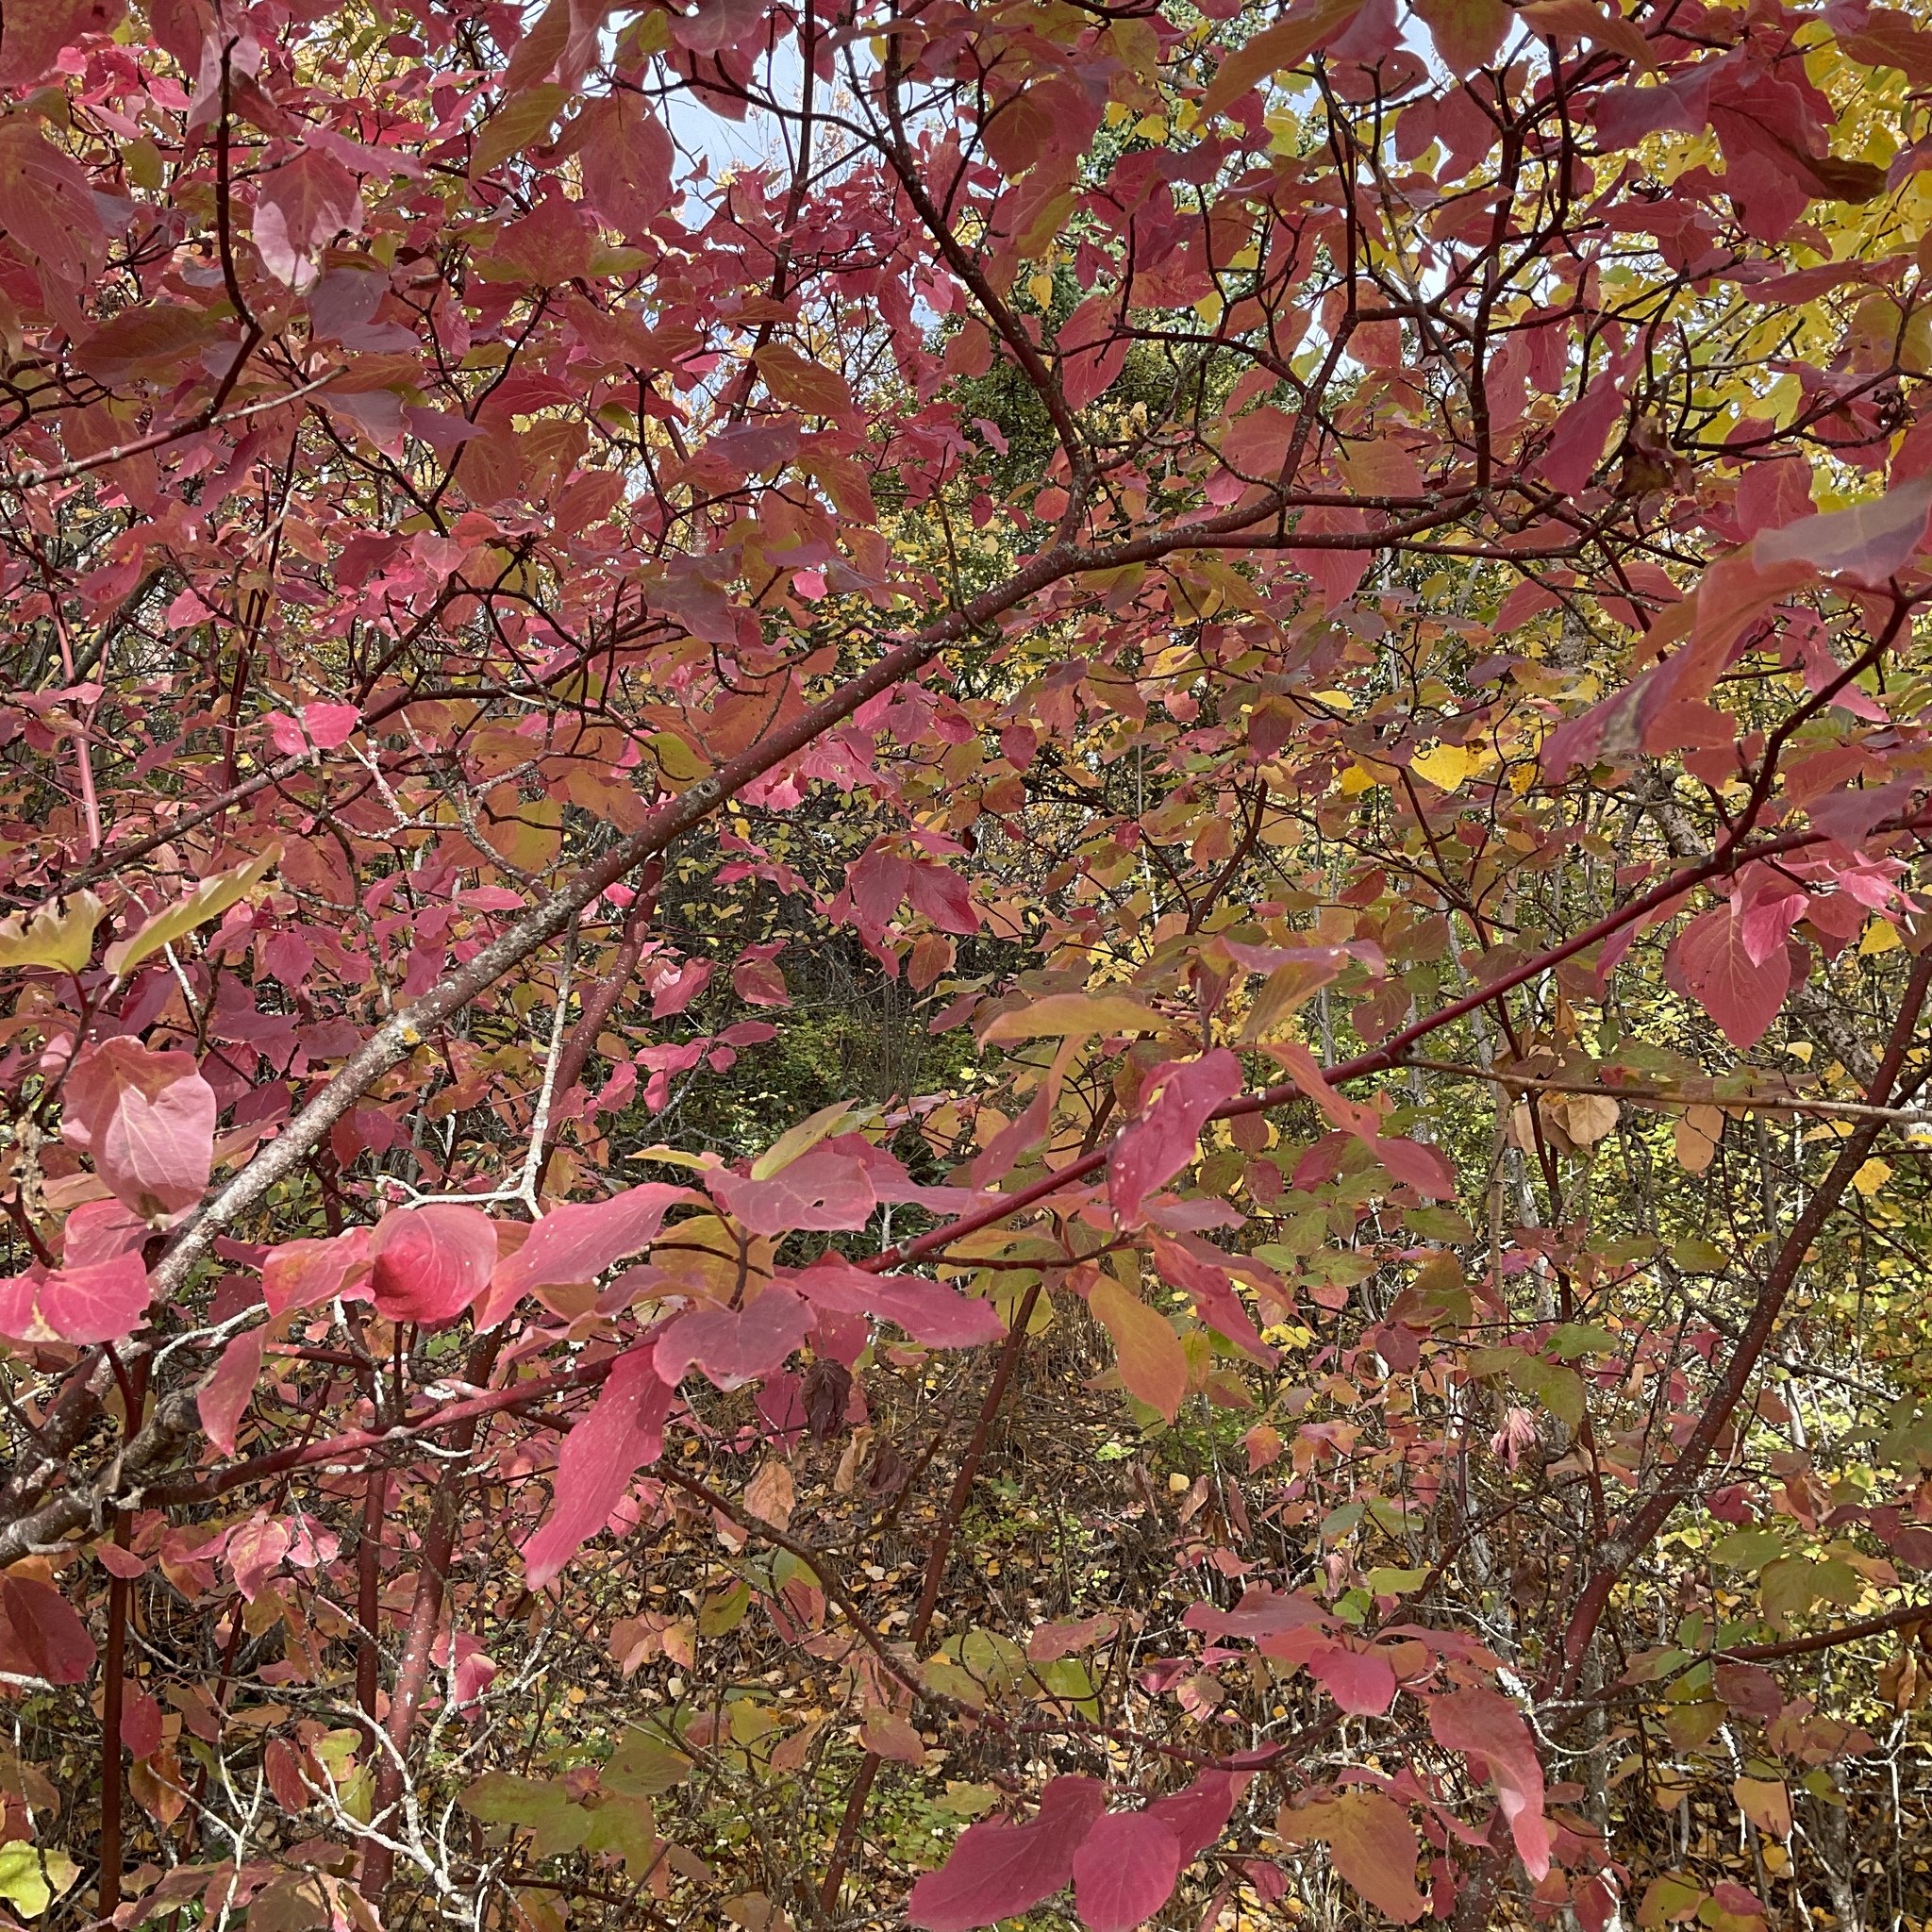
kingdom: Plantae
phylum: Tracheophyta
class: Magnoliopsida
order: Cornales
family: Cornaceae
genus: Cornus
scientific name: Cornus sericea
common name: Red-osier dogwood
